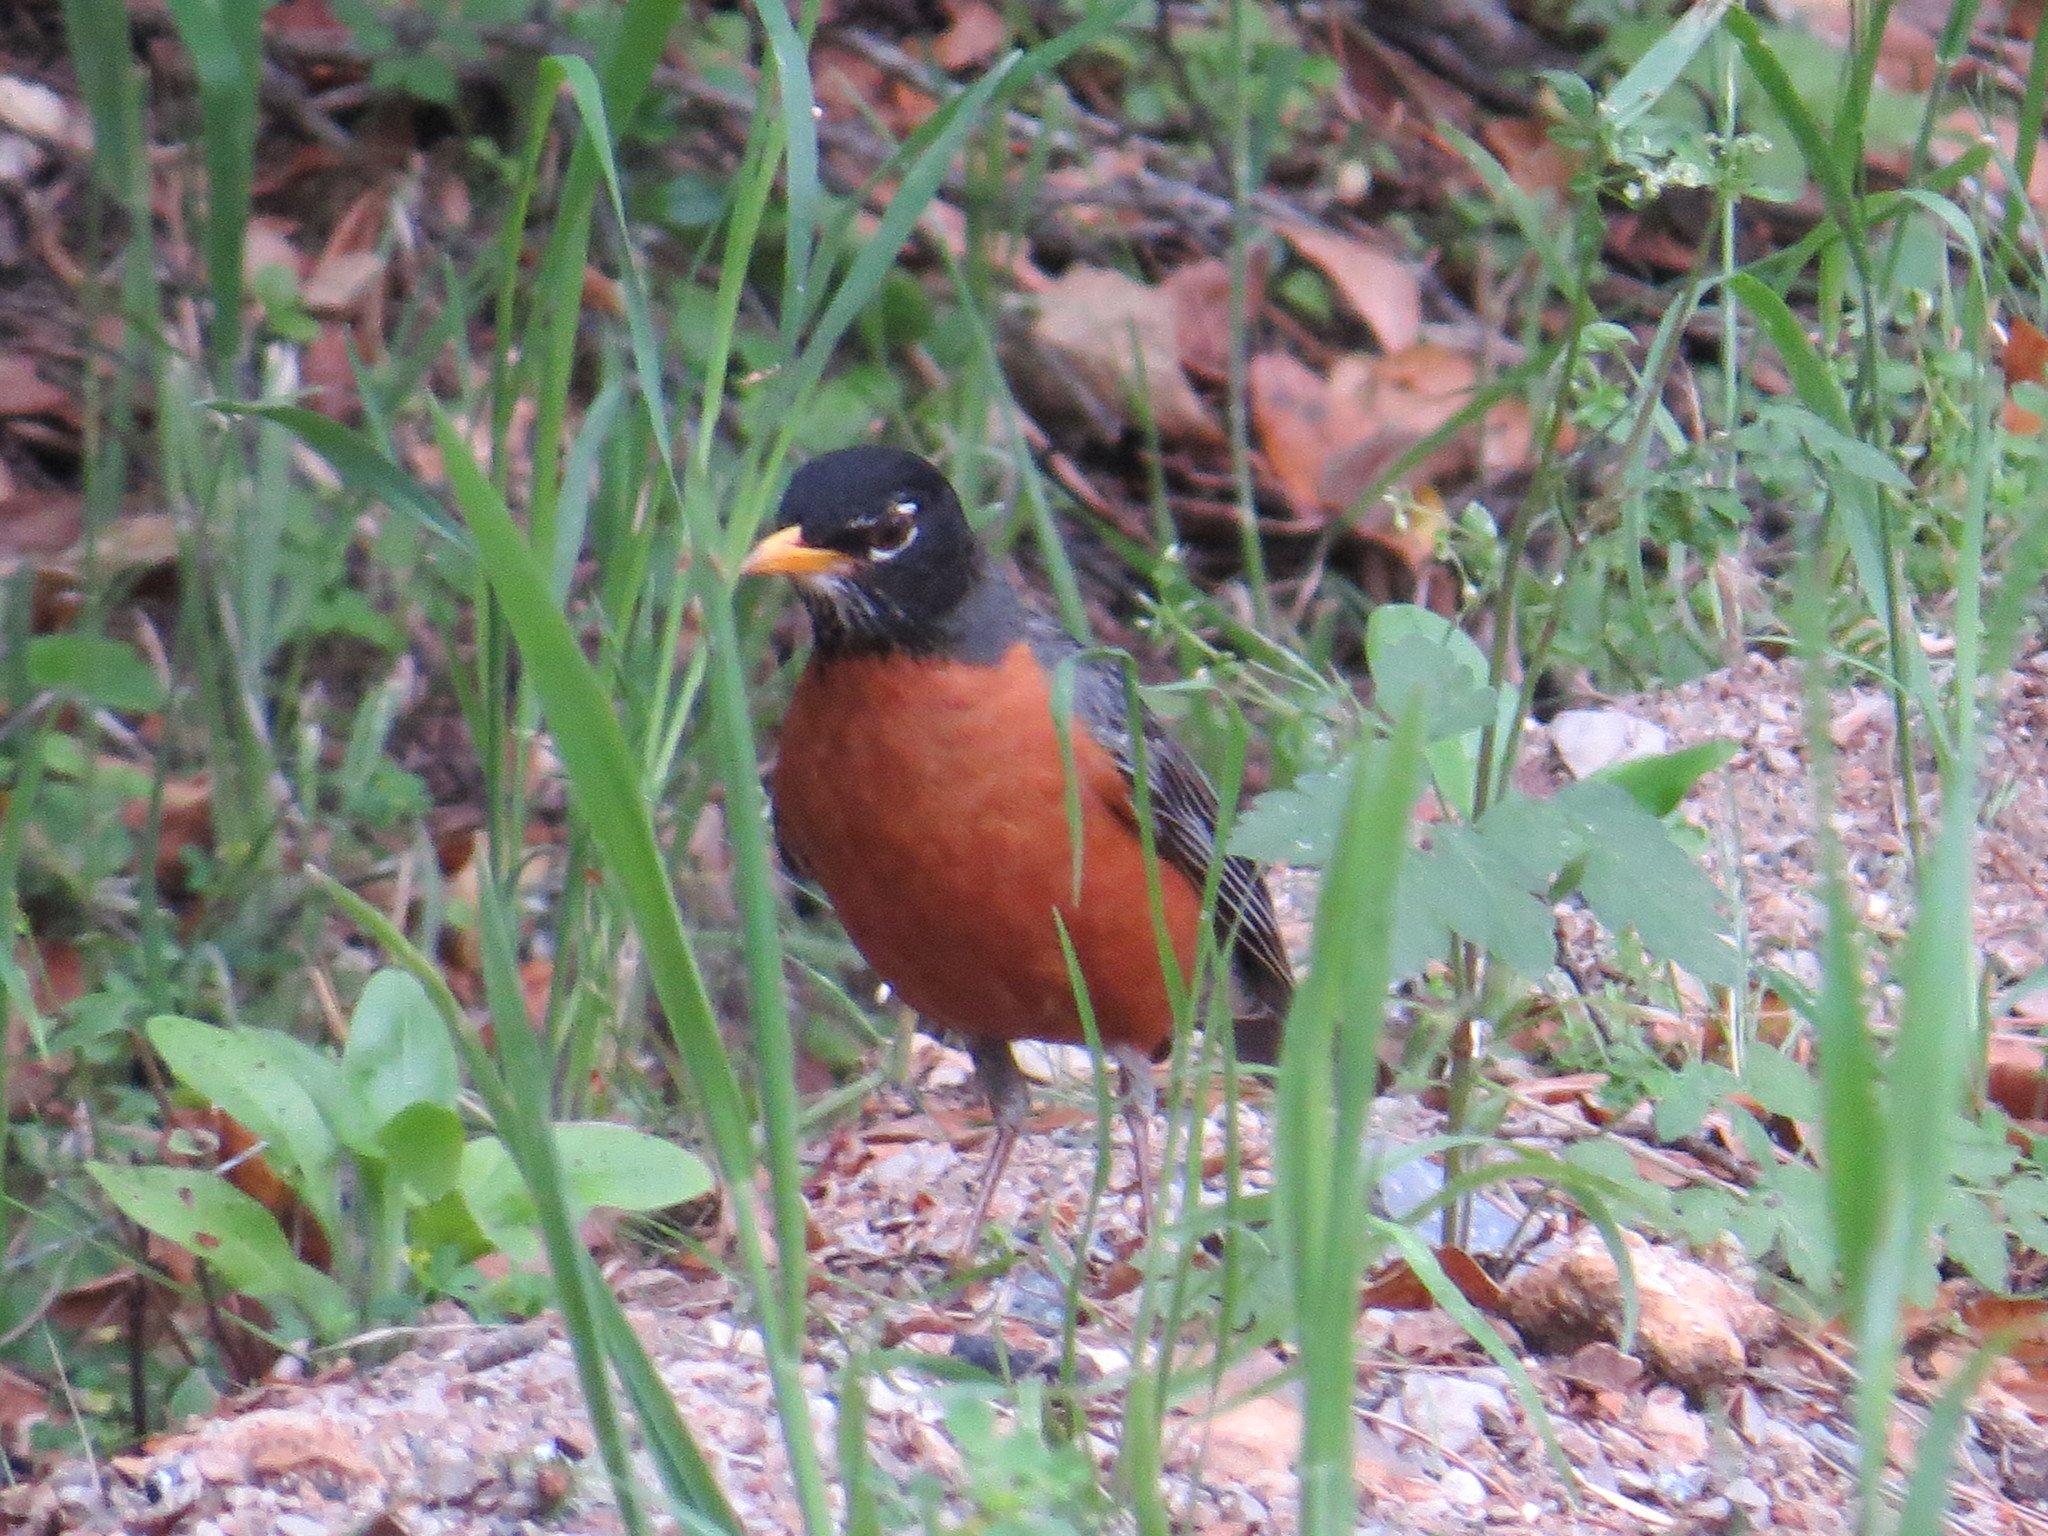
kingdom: Animalia
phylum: Chordata
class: Aves
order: Passeriformes
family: Turdidae
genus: Turdus
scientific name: Turdus migratorius
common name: American robin
